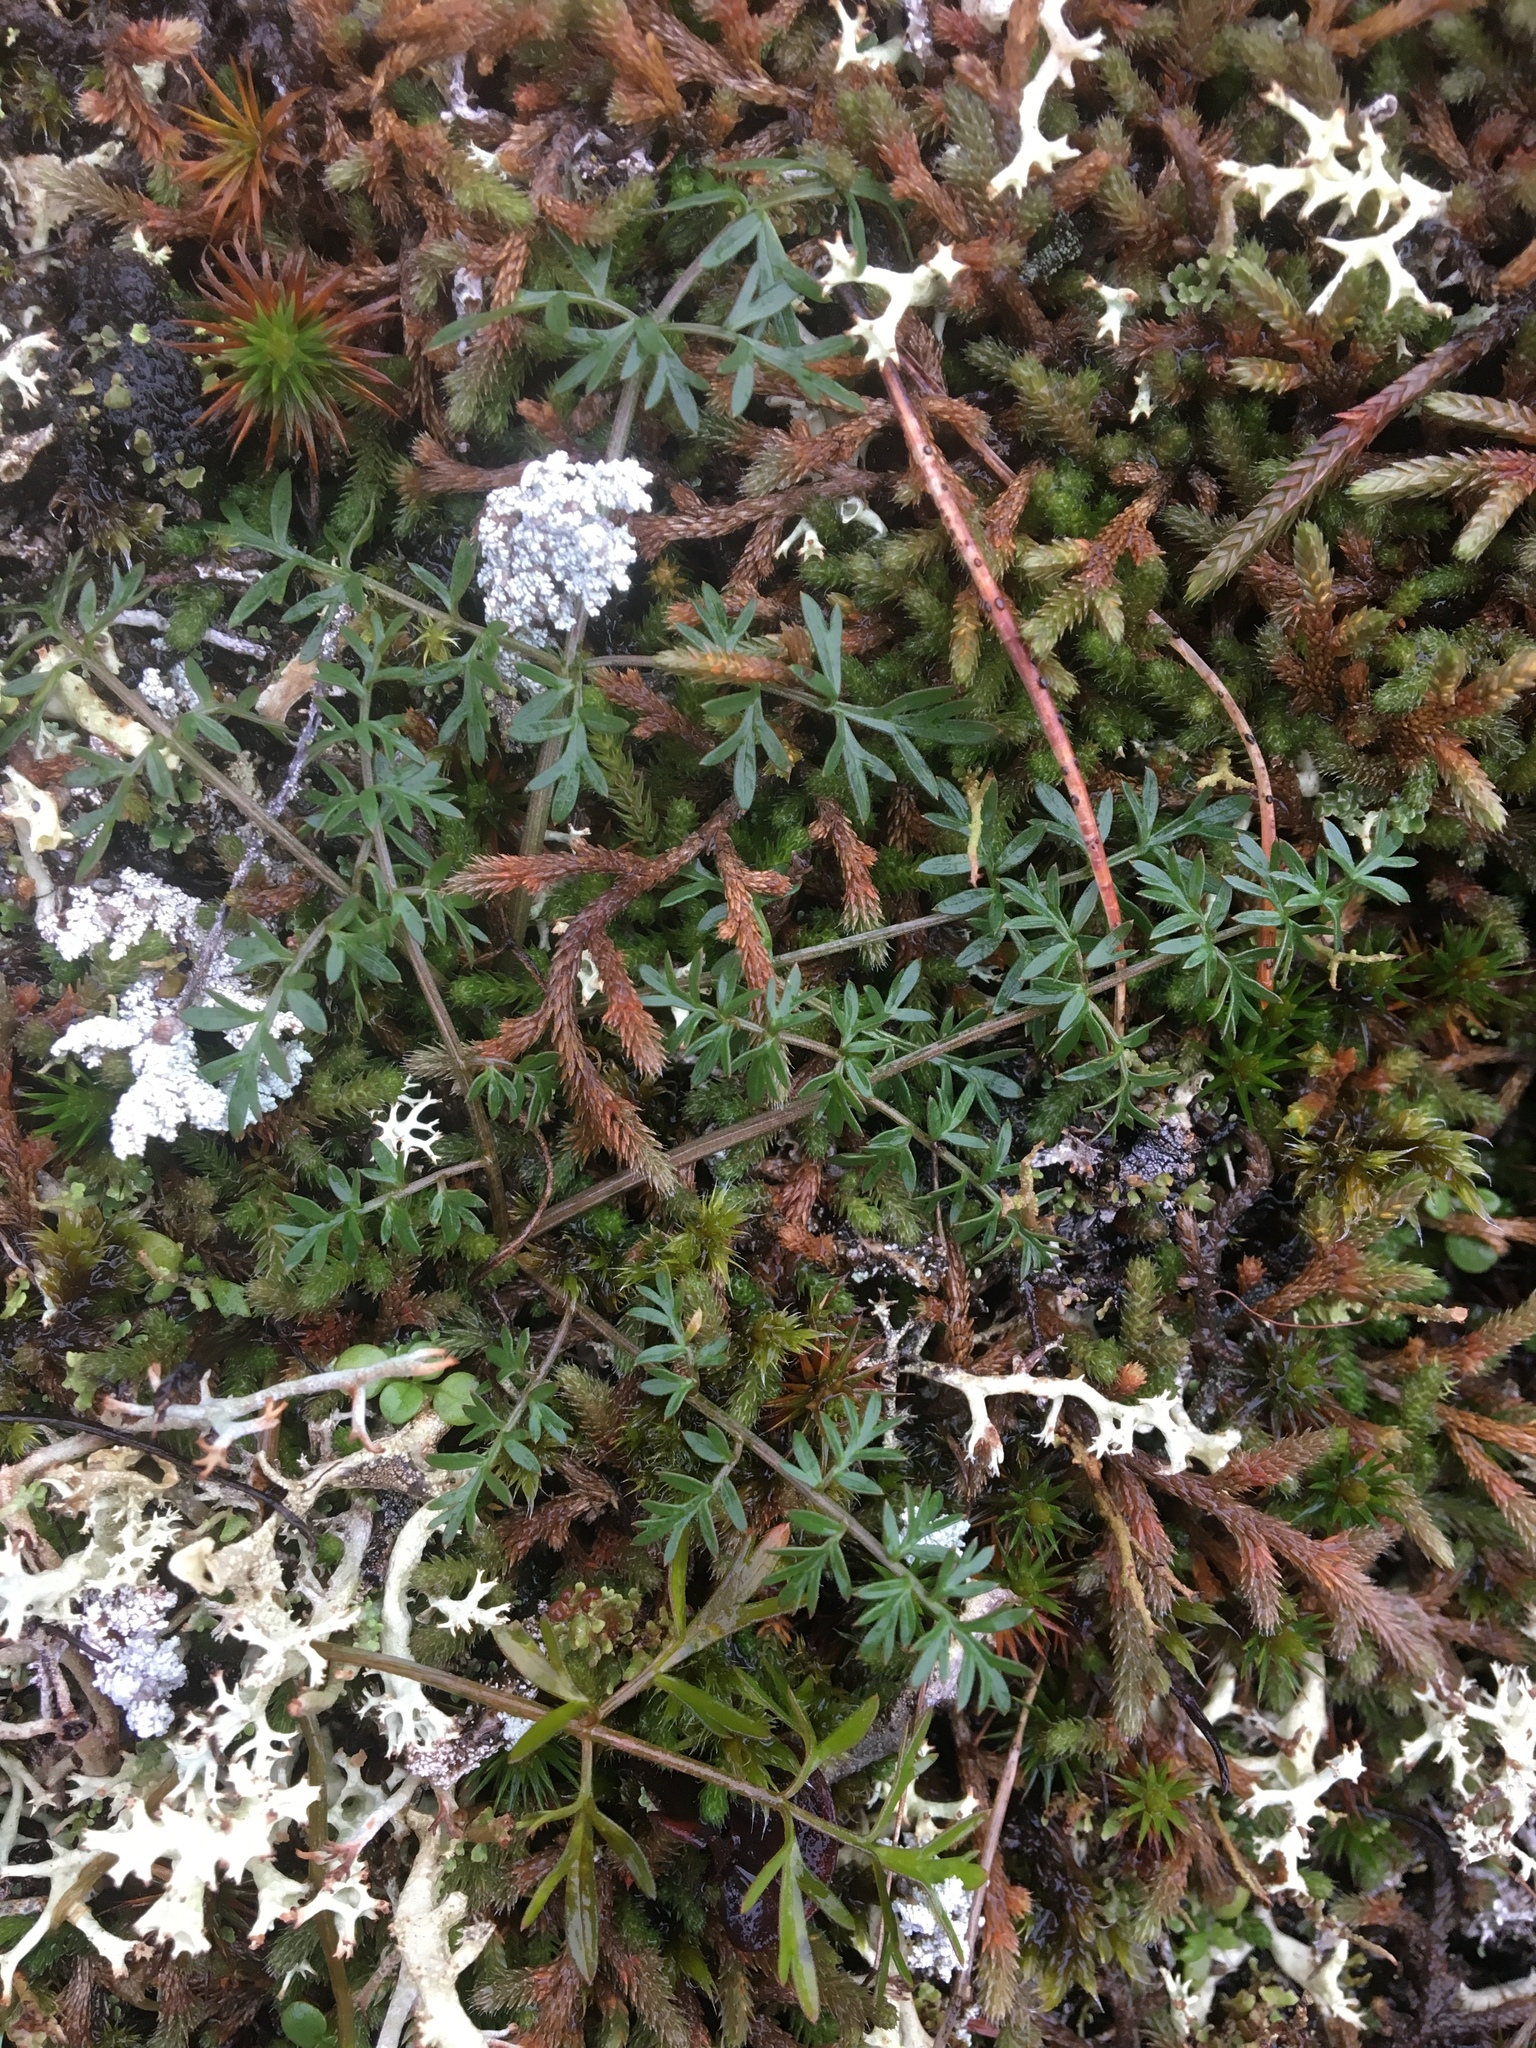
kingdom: Plantae
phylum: Tracheophyta
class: Magnoliopsida
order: Apiales
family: Apiaceae
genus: Lomatium
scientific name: Lomatium utriculatum
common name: Fine-leaf desert-parsley
